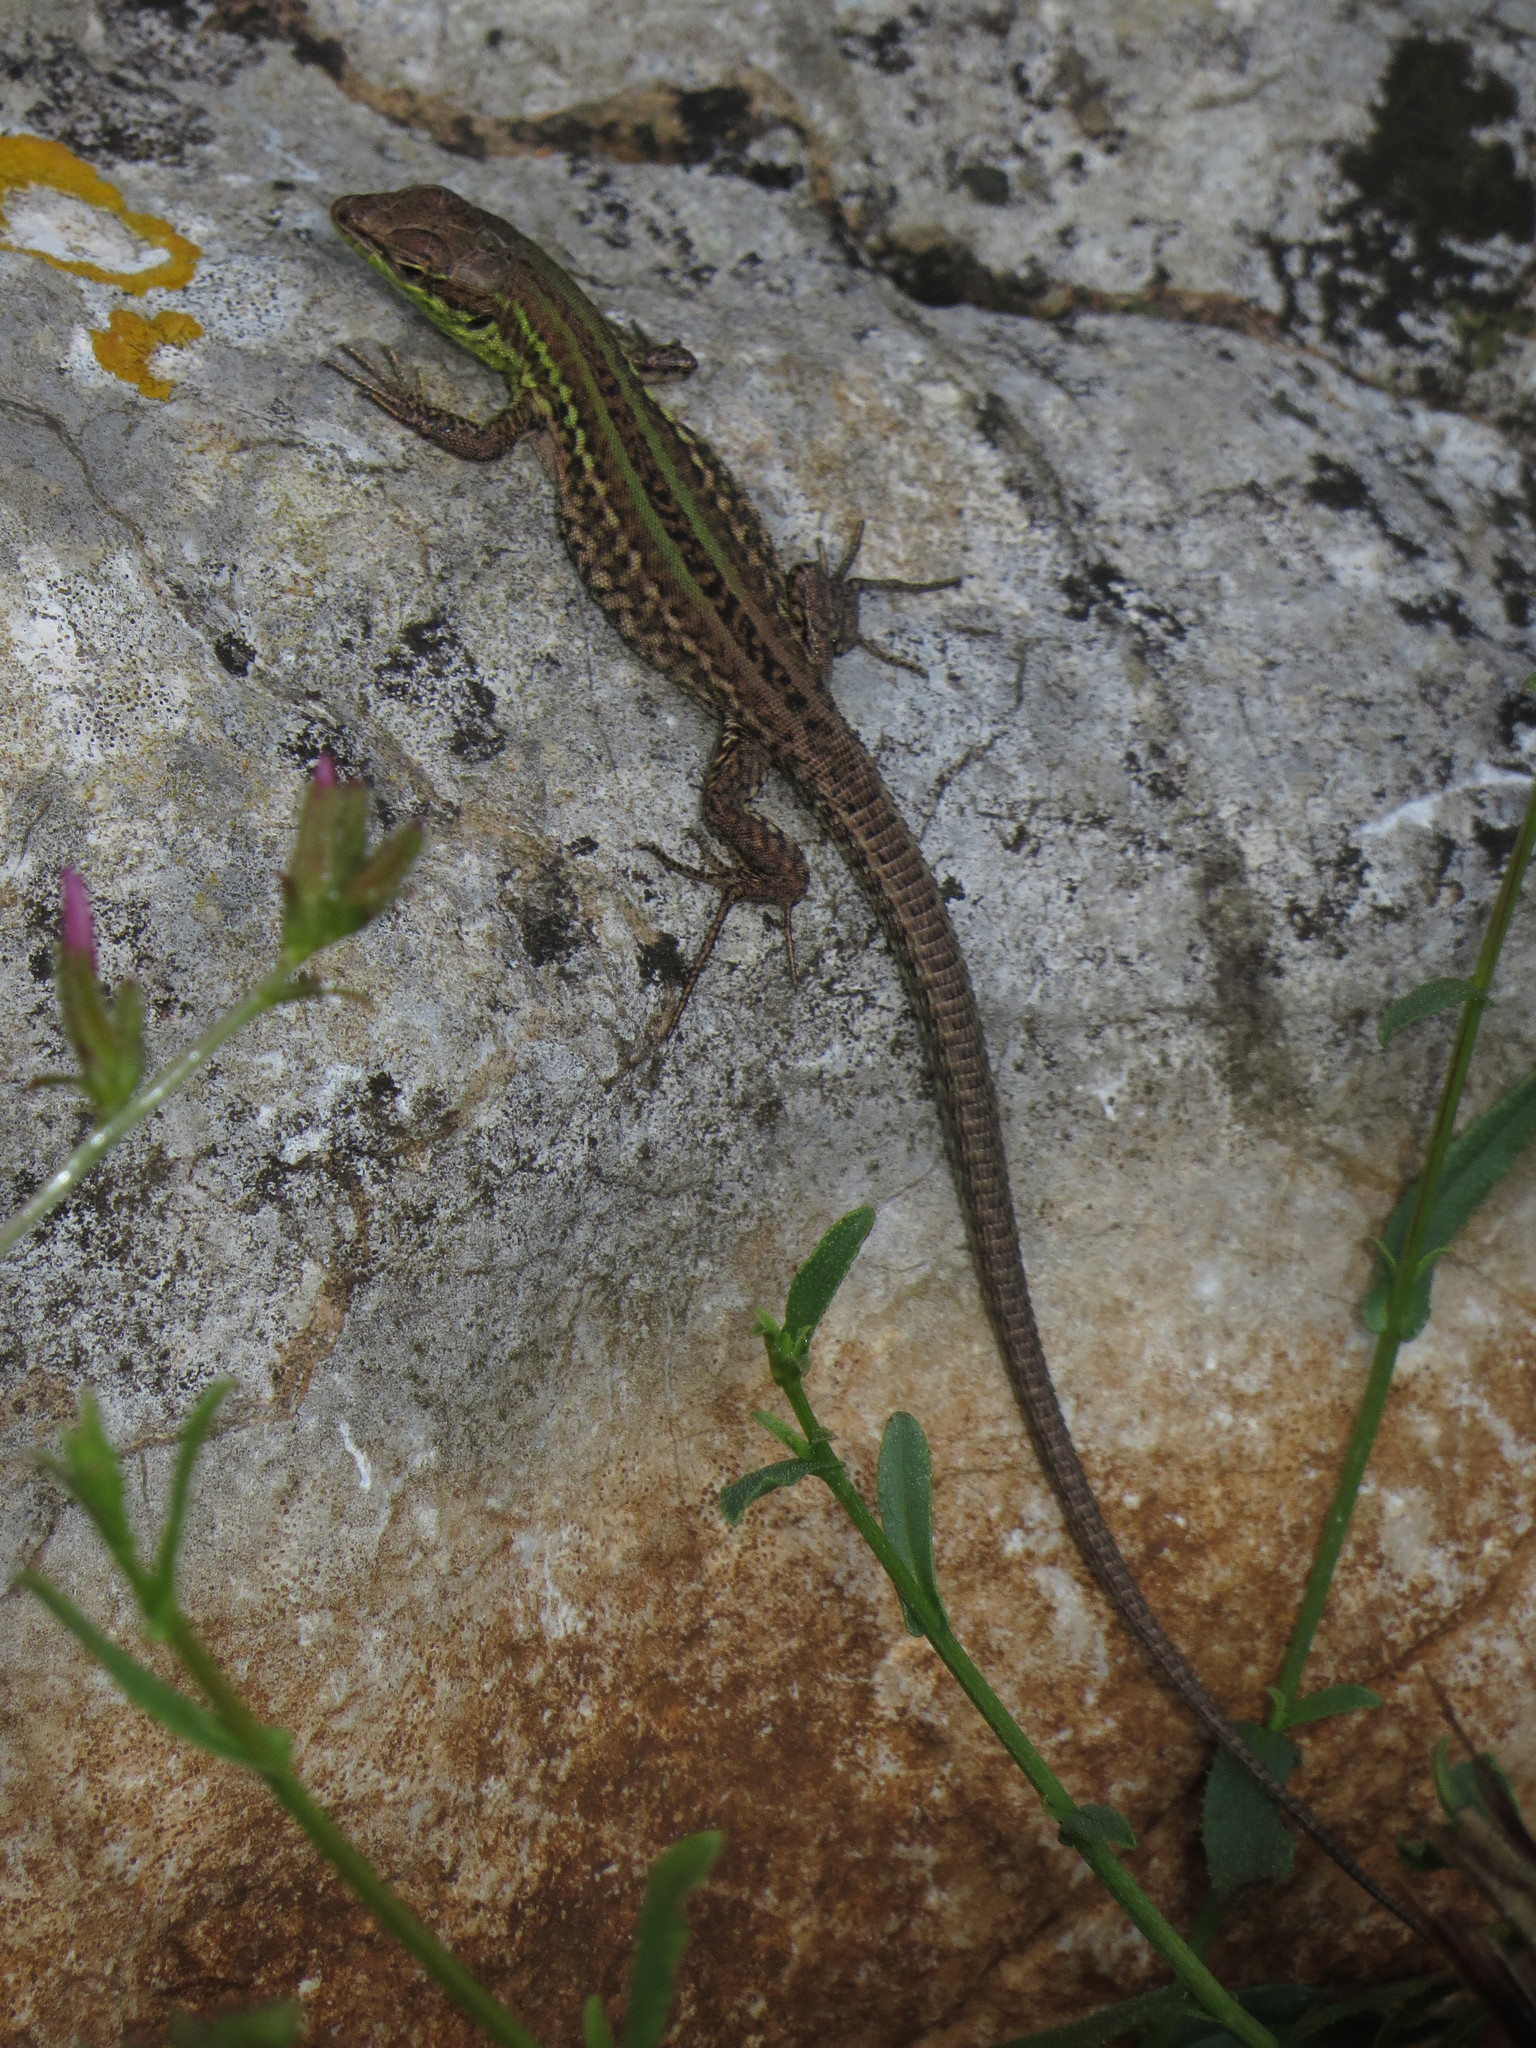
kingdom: Animalia
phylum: Chordata
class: Squamata
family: Lacertidae
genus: Podarcis
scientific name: Podarcis siculus
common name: Italian wall lizard
